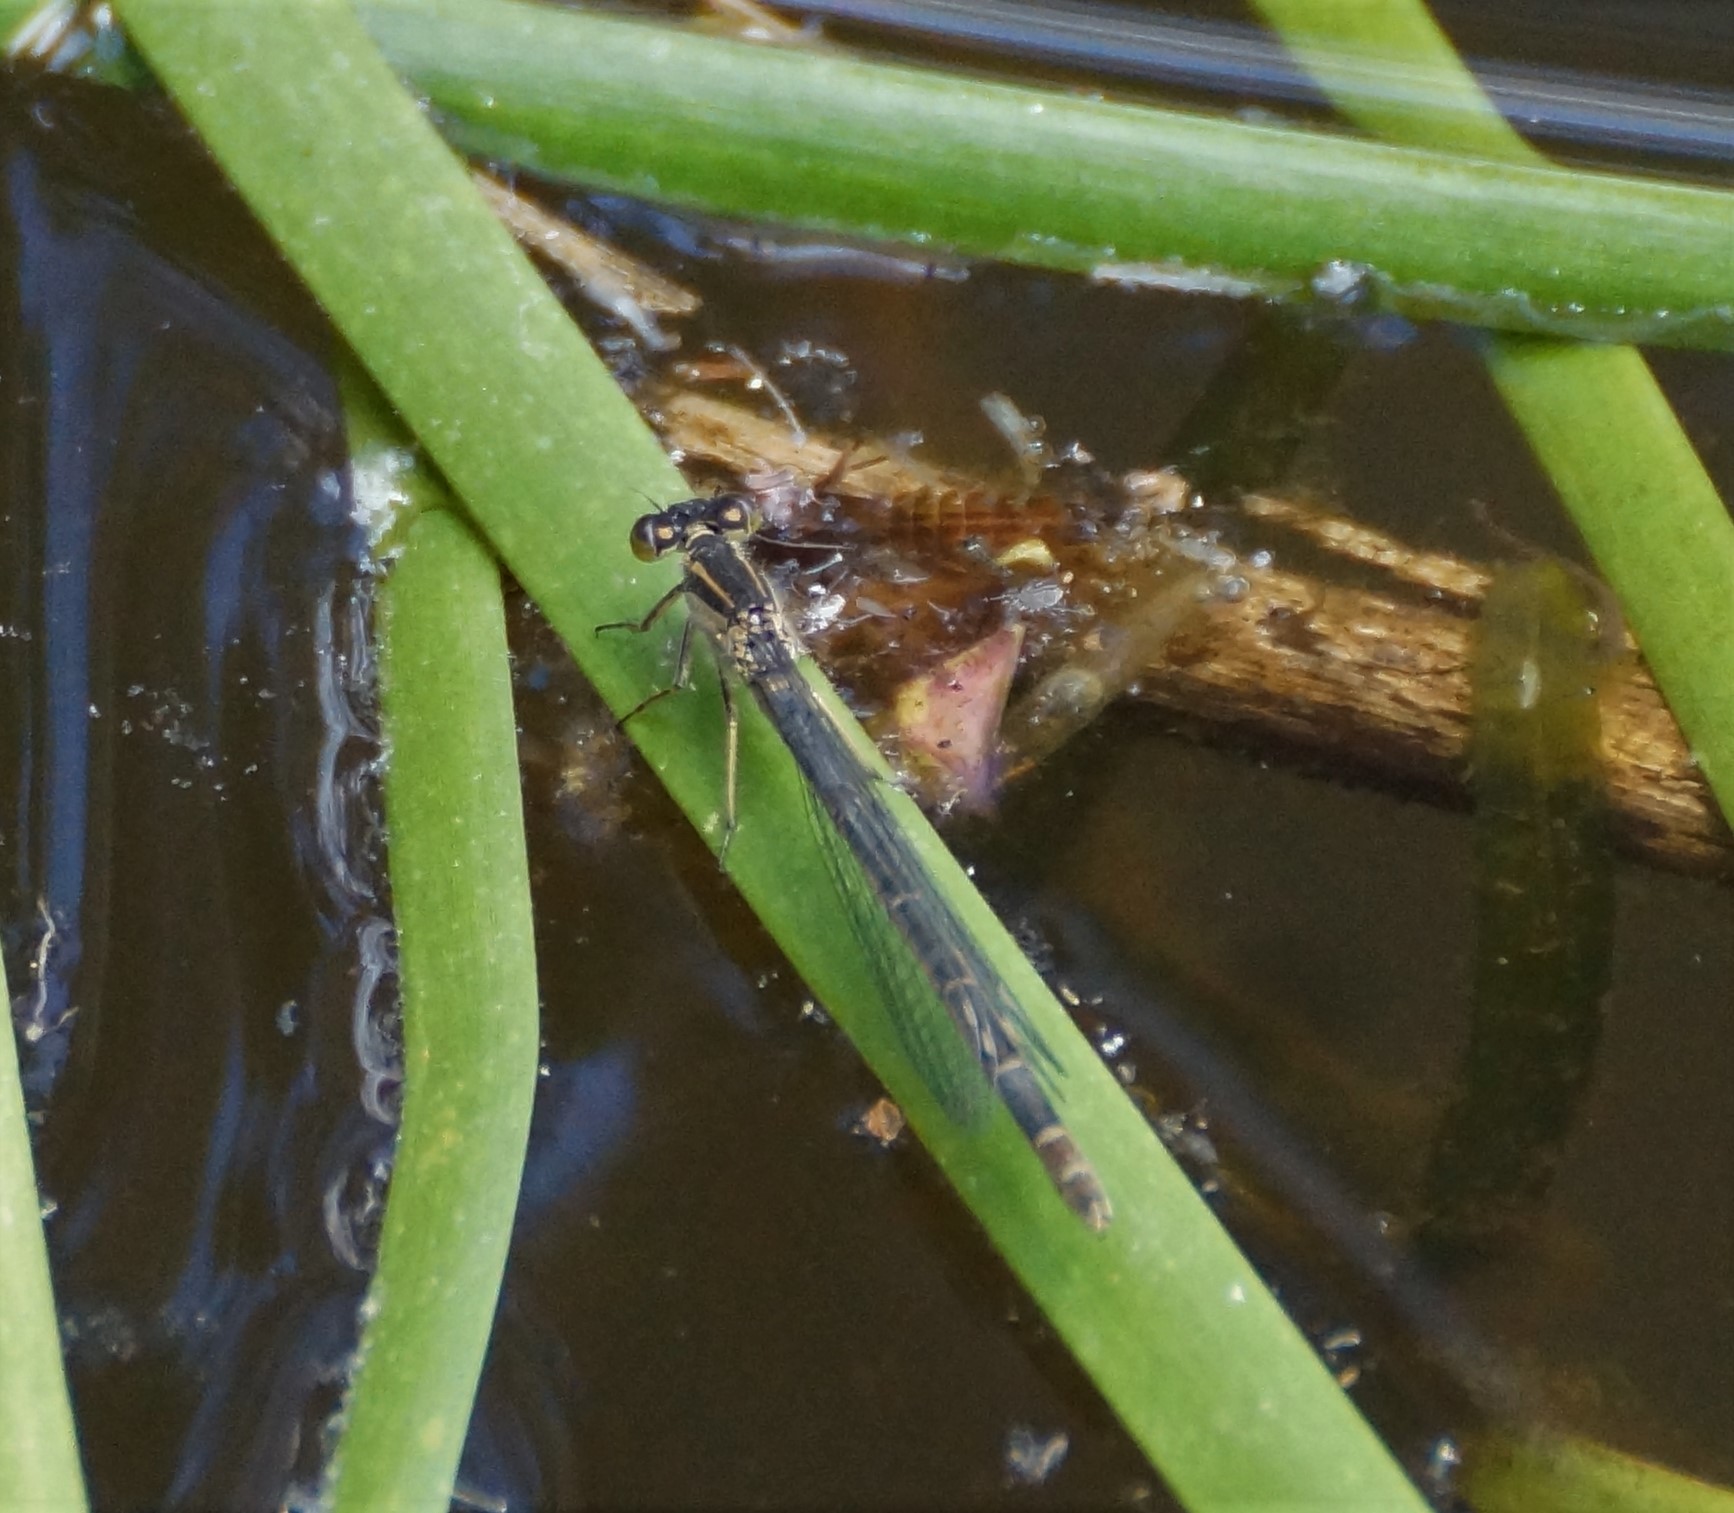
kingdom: Animalia
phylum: Arthropoda
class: Insecta
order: Odonata
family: Coenagrionidae
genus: Ischnura
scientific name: Ischnura heterosticta
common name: Common bluetail
